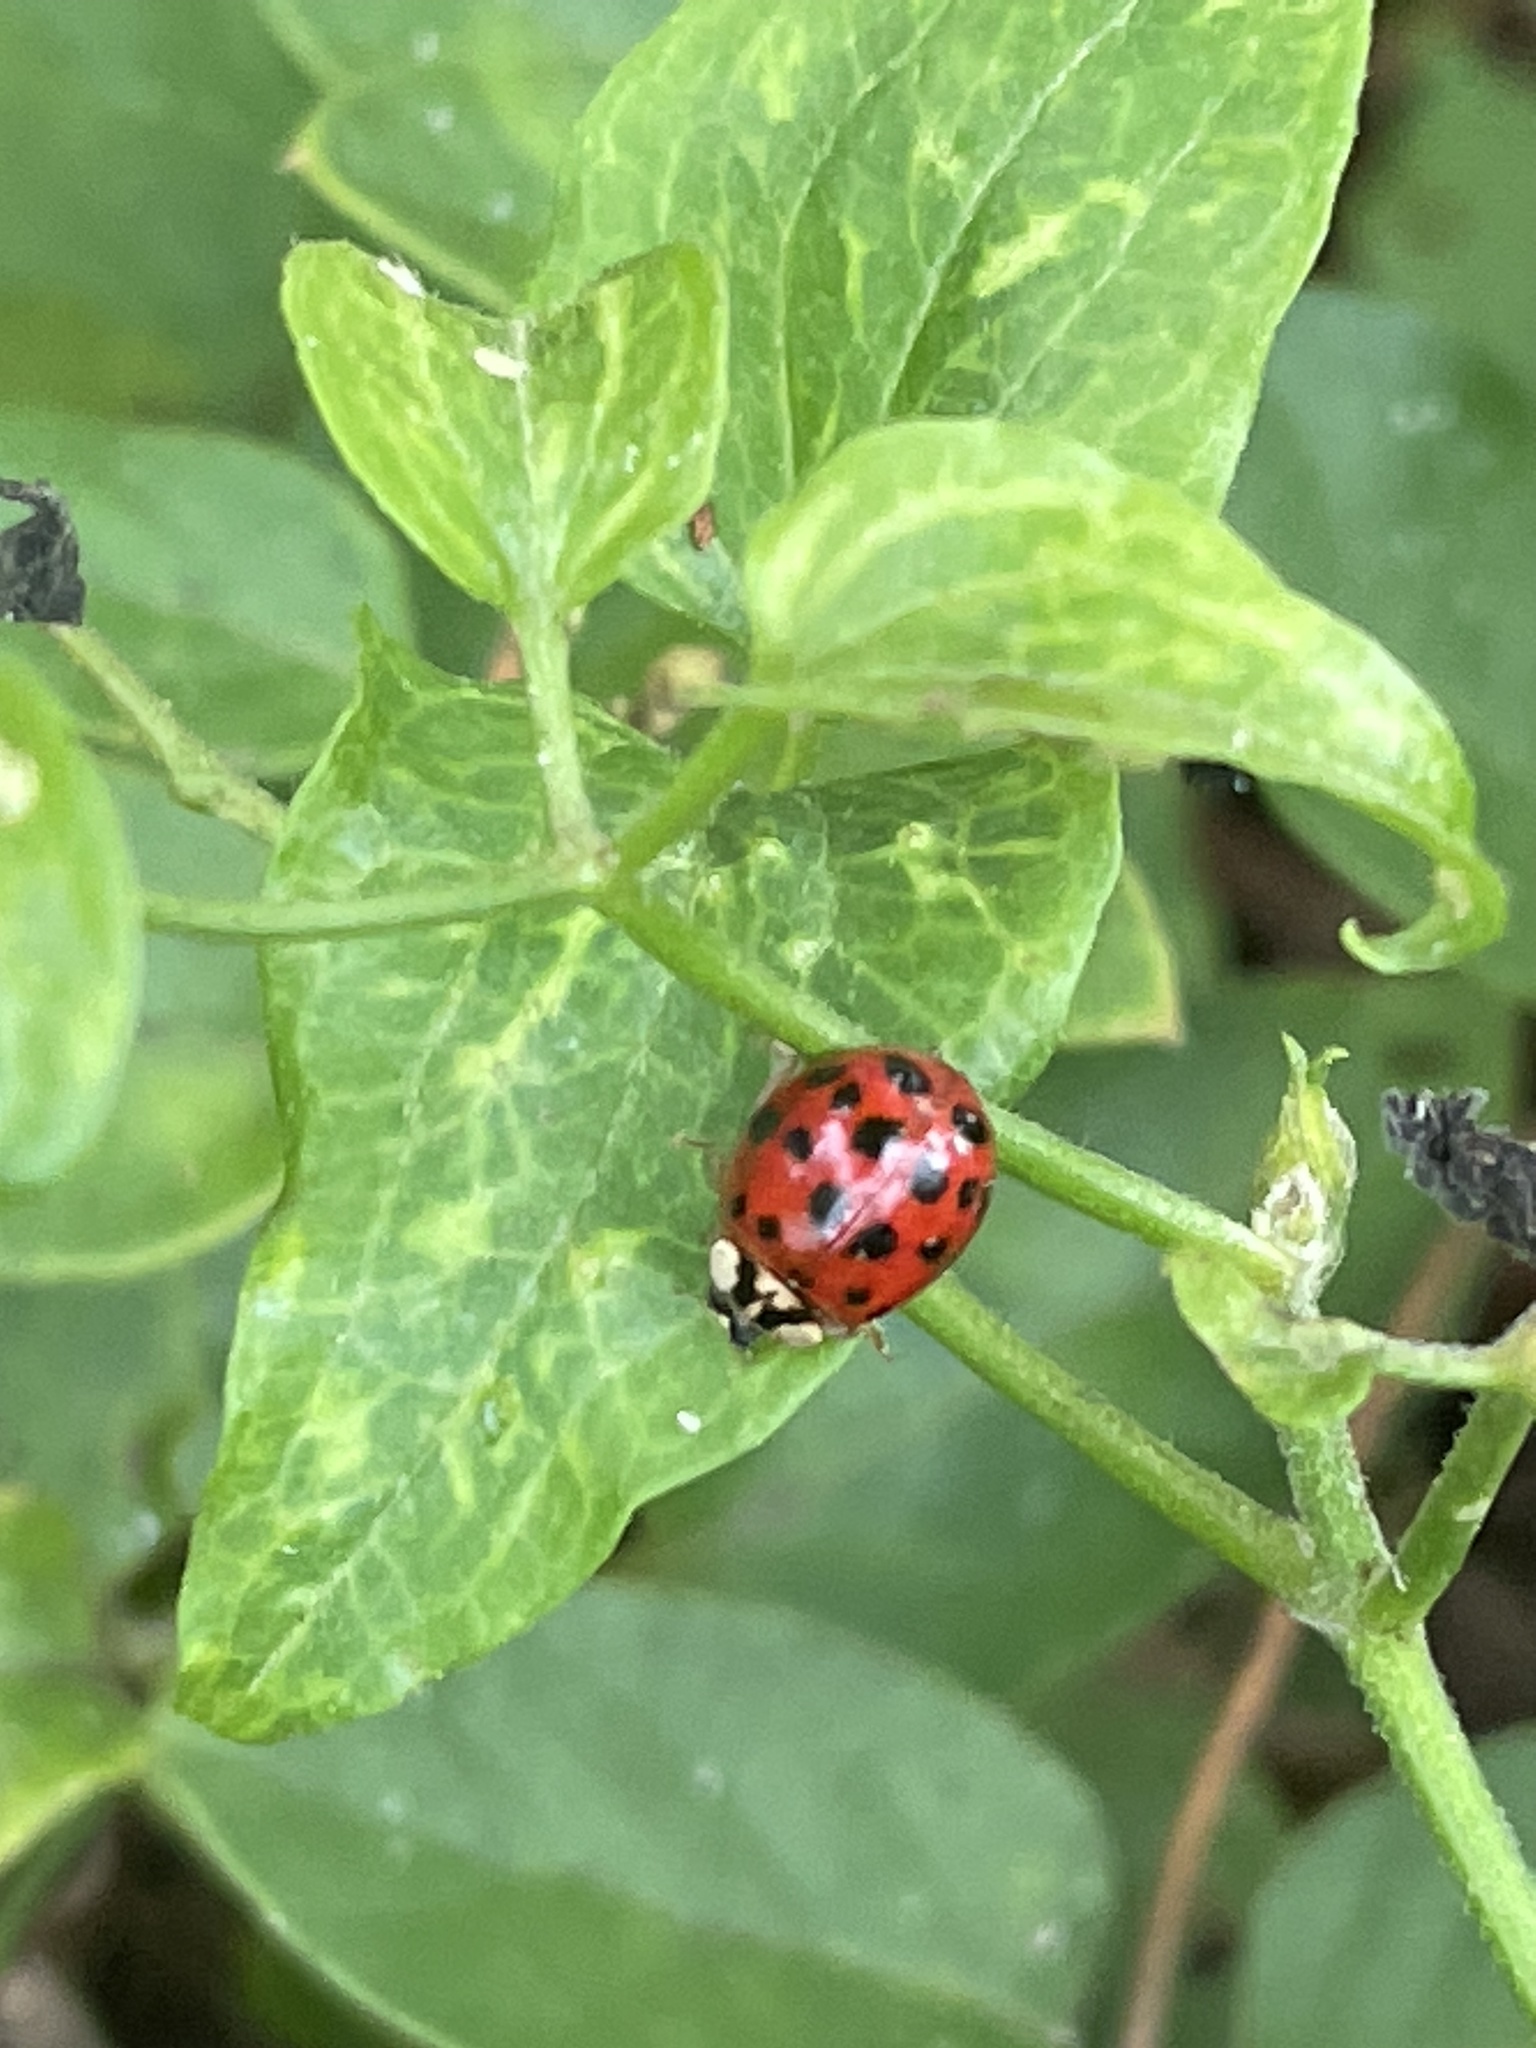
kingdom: Animalia
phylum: Arthropoda
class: Insecta
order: Coleoptera
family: Coccinellidae
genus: Harmonia
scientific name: Harmonia axyridis
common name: Harlequin ladybird
